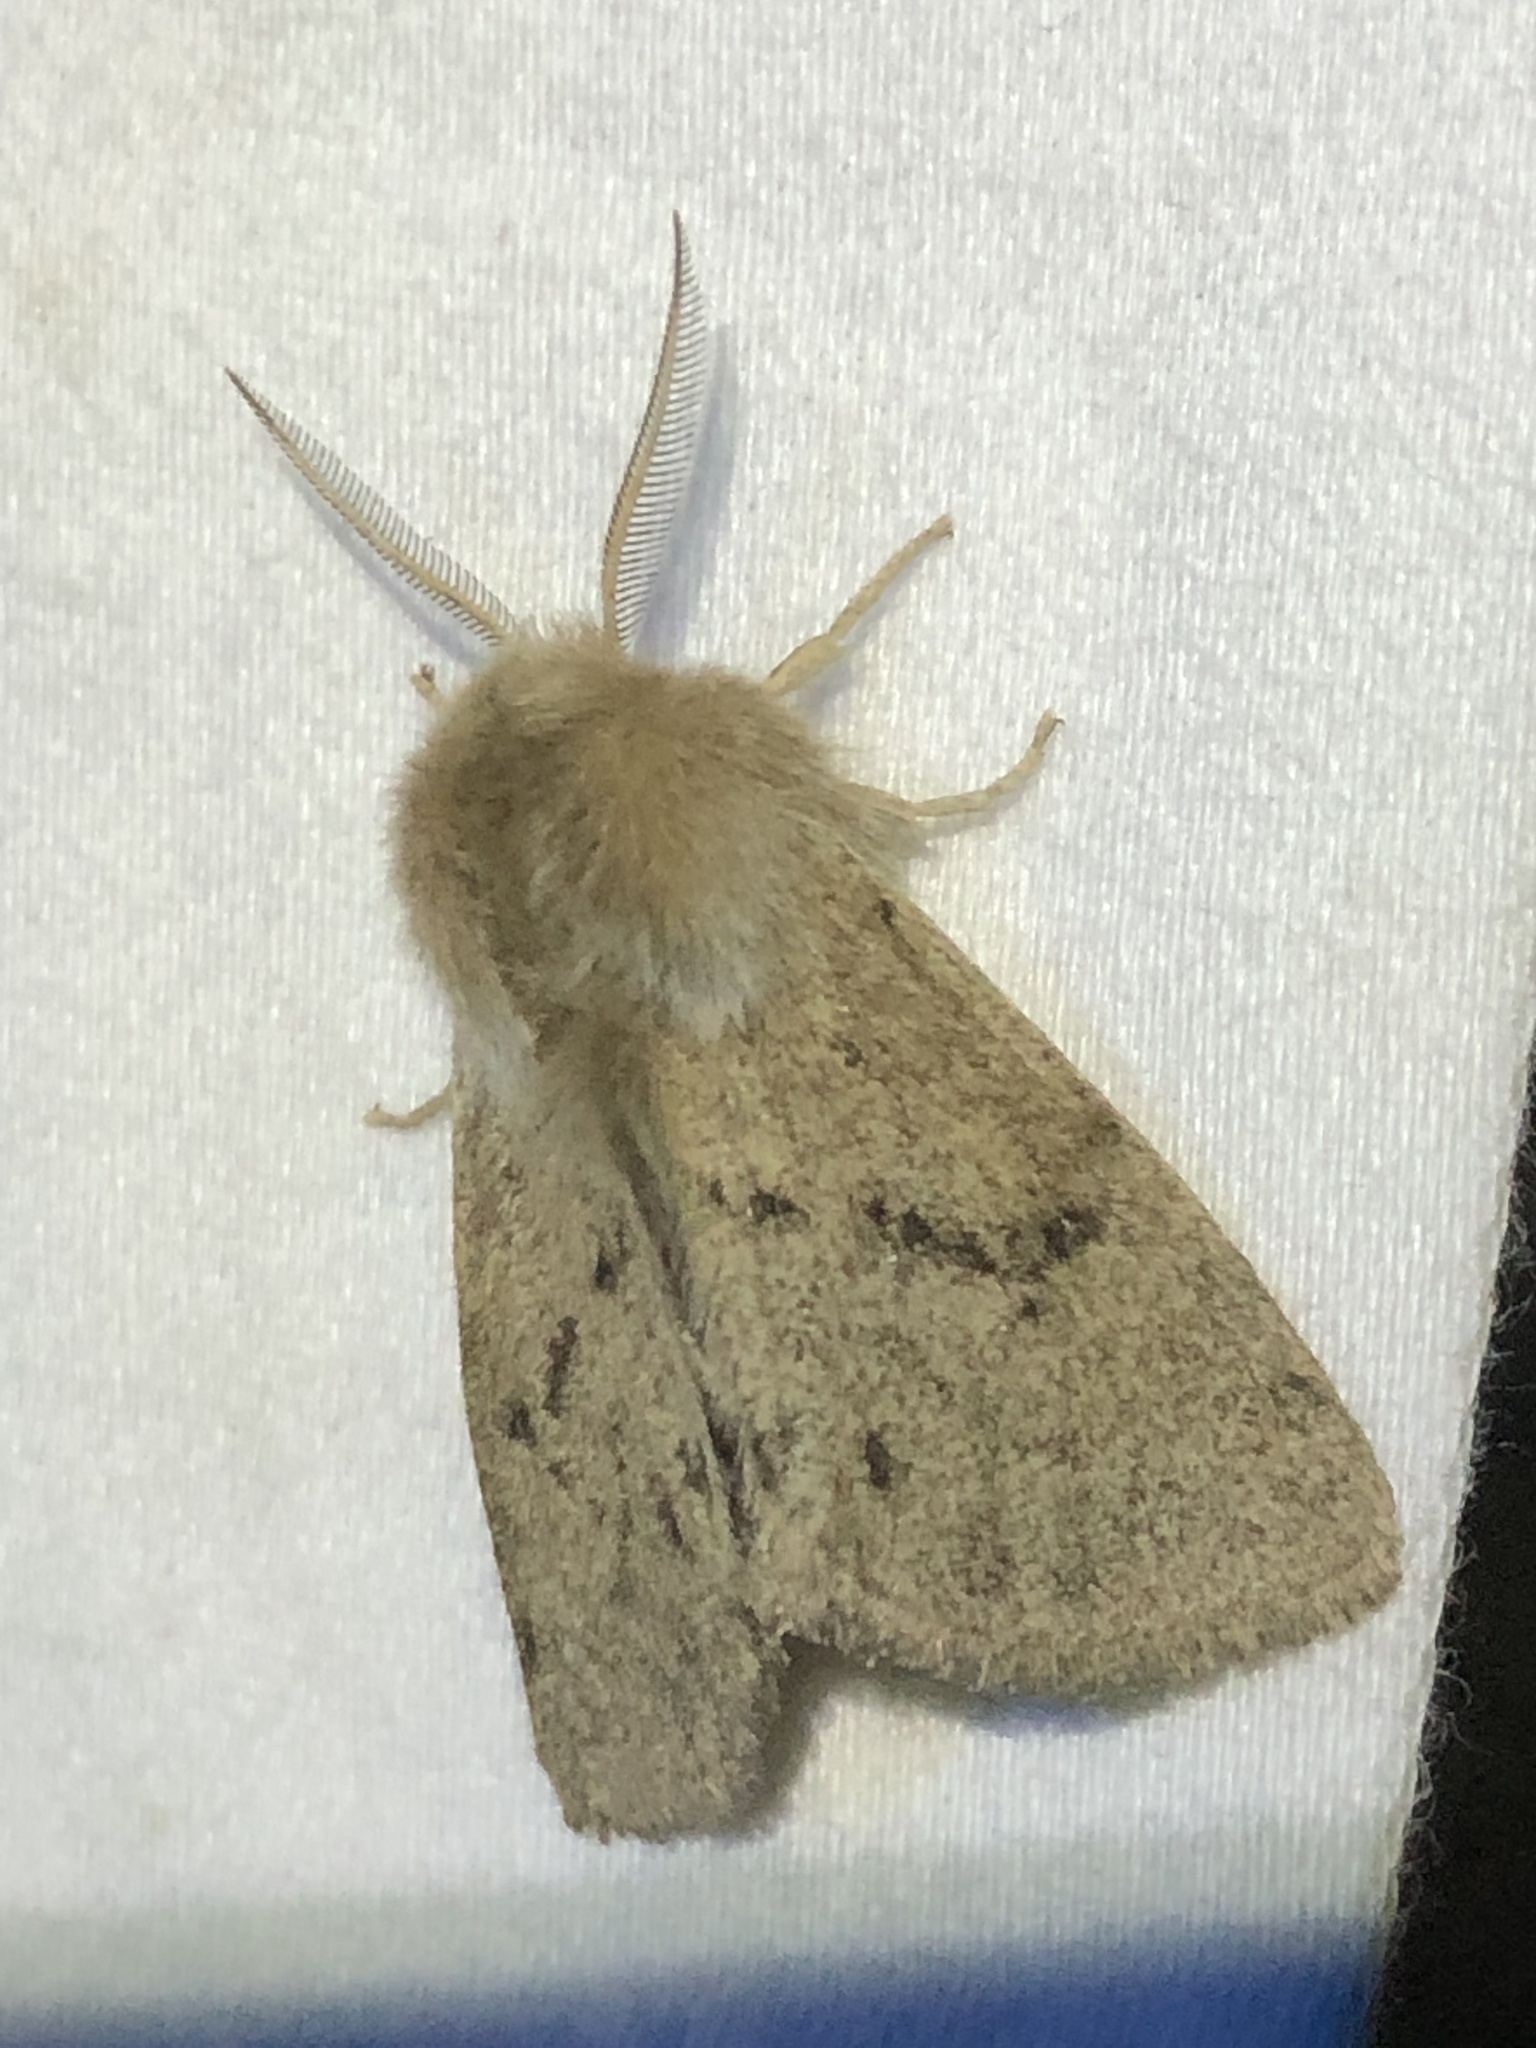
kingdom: Animalia
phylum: Arthropoda
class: Insecta
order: Lepidoptera
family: Erebidae
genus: Spilosoma
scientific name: Spilosoma vagans
